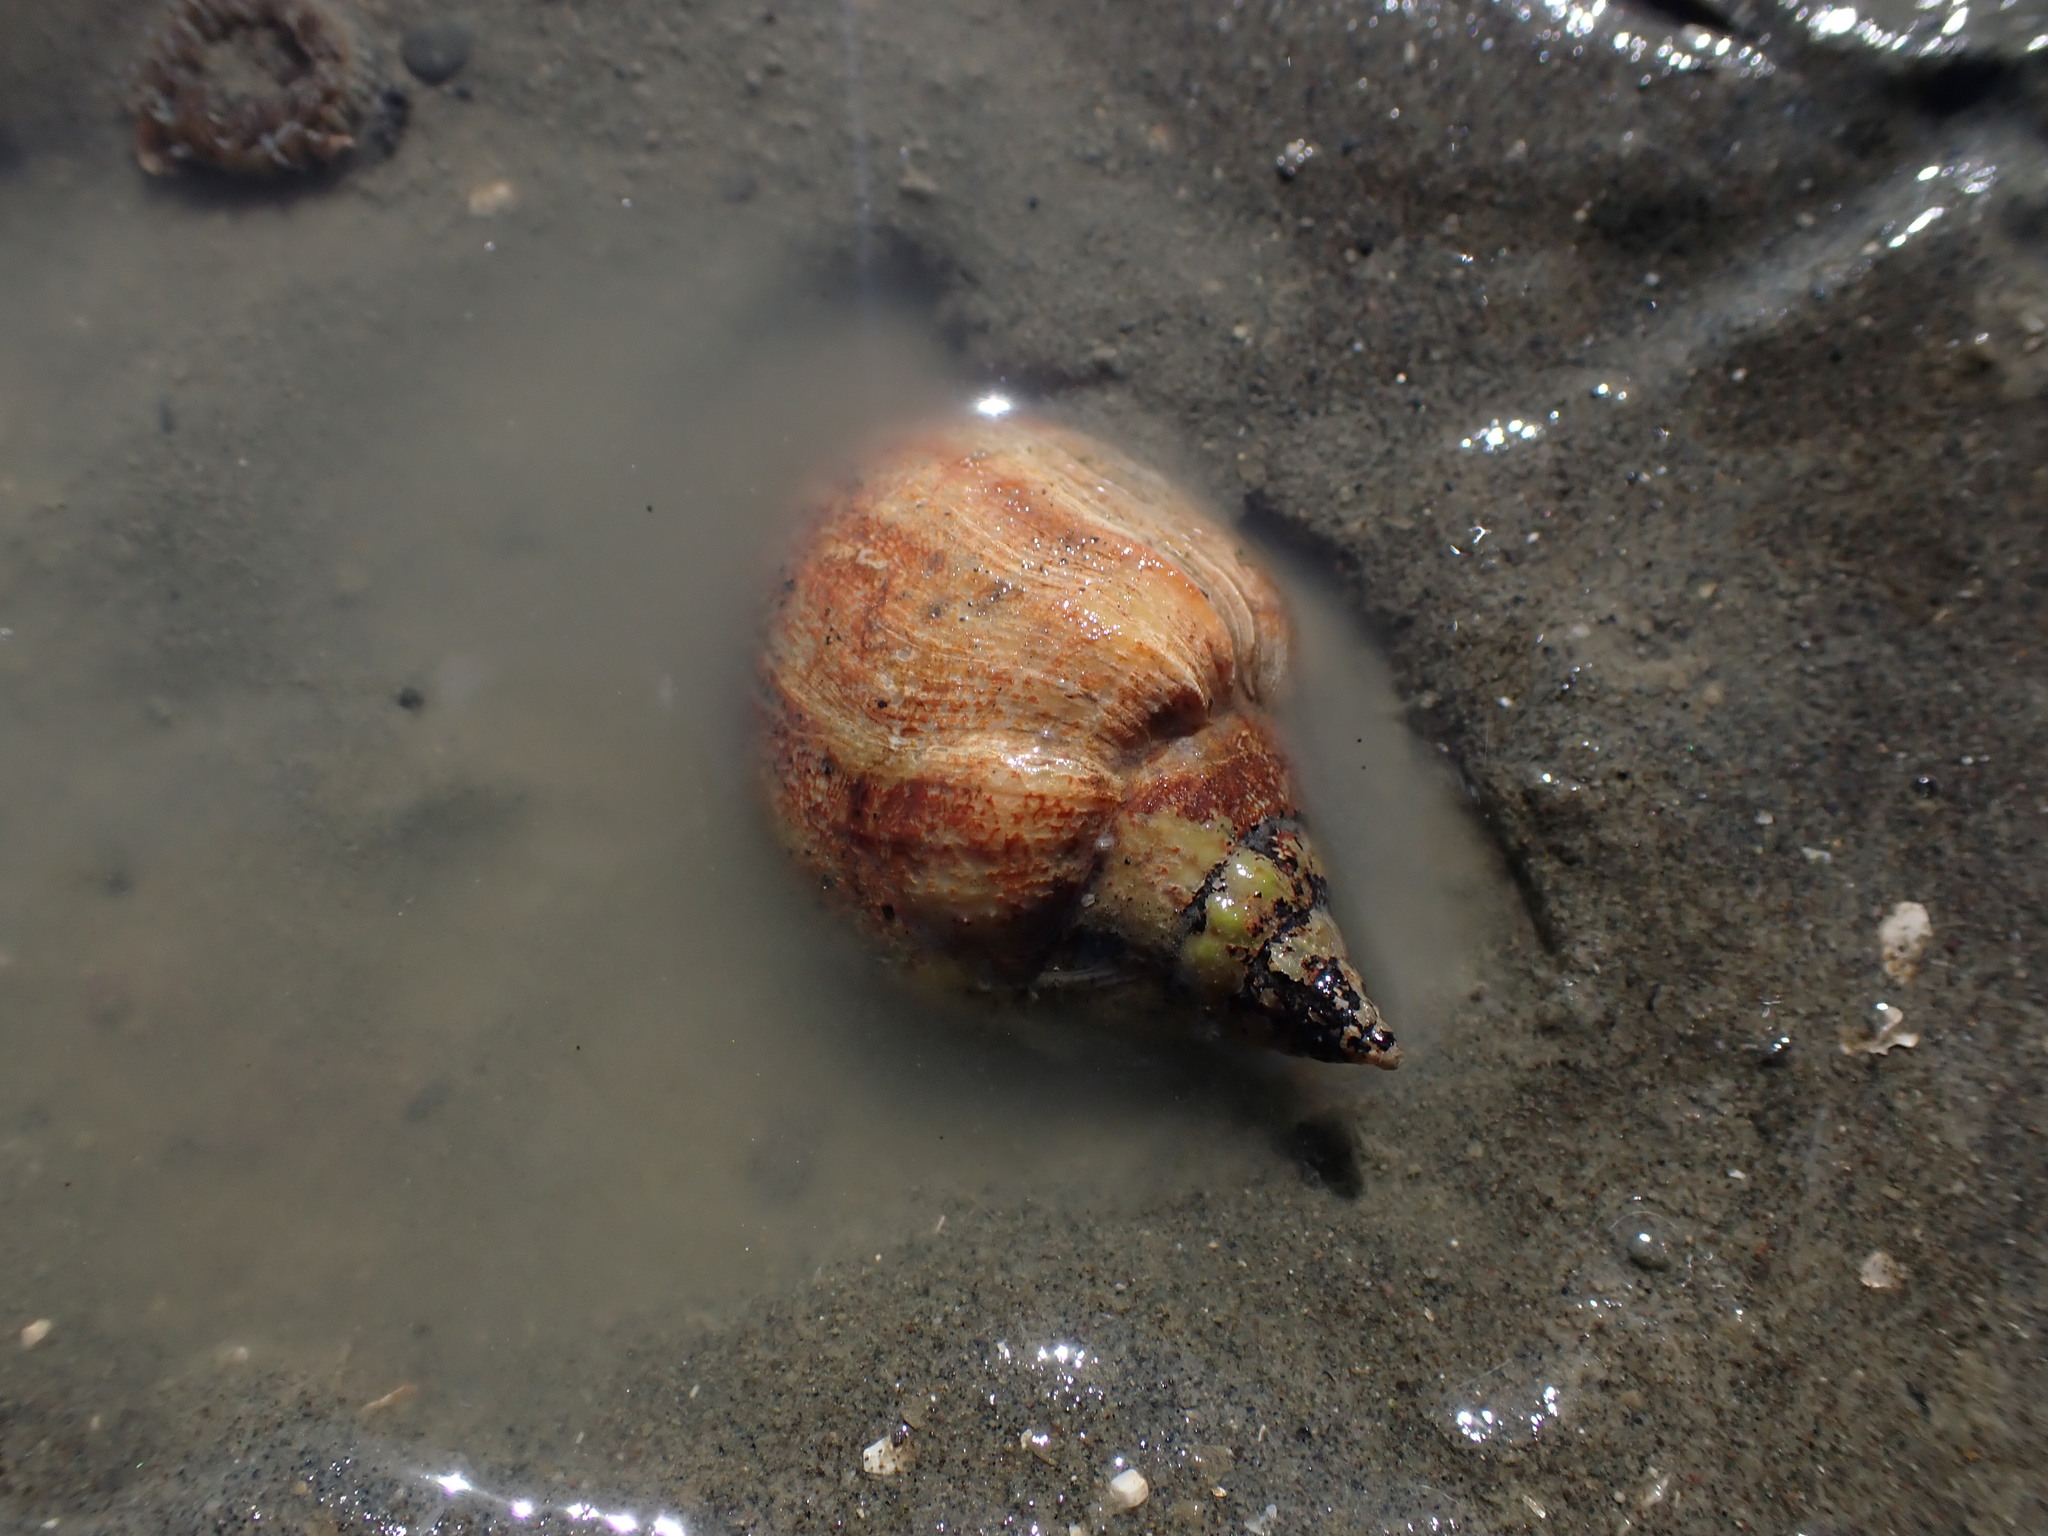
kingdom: Animalia
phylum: Mollusca
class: Gastropoda
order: Neogastropoda
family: Cominellidae
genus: Cominella
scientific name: Cominella adspersa
